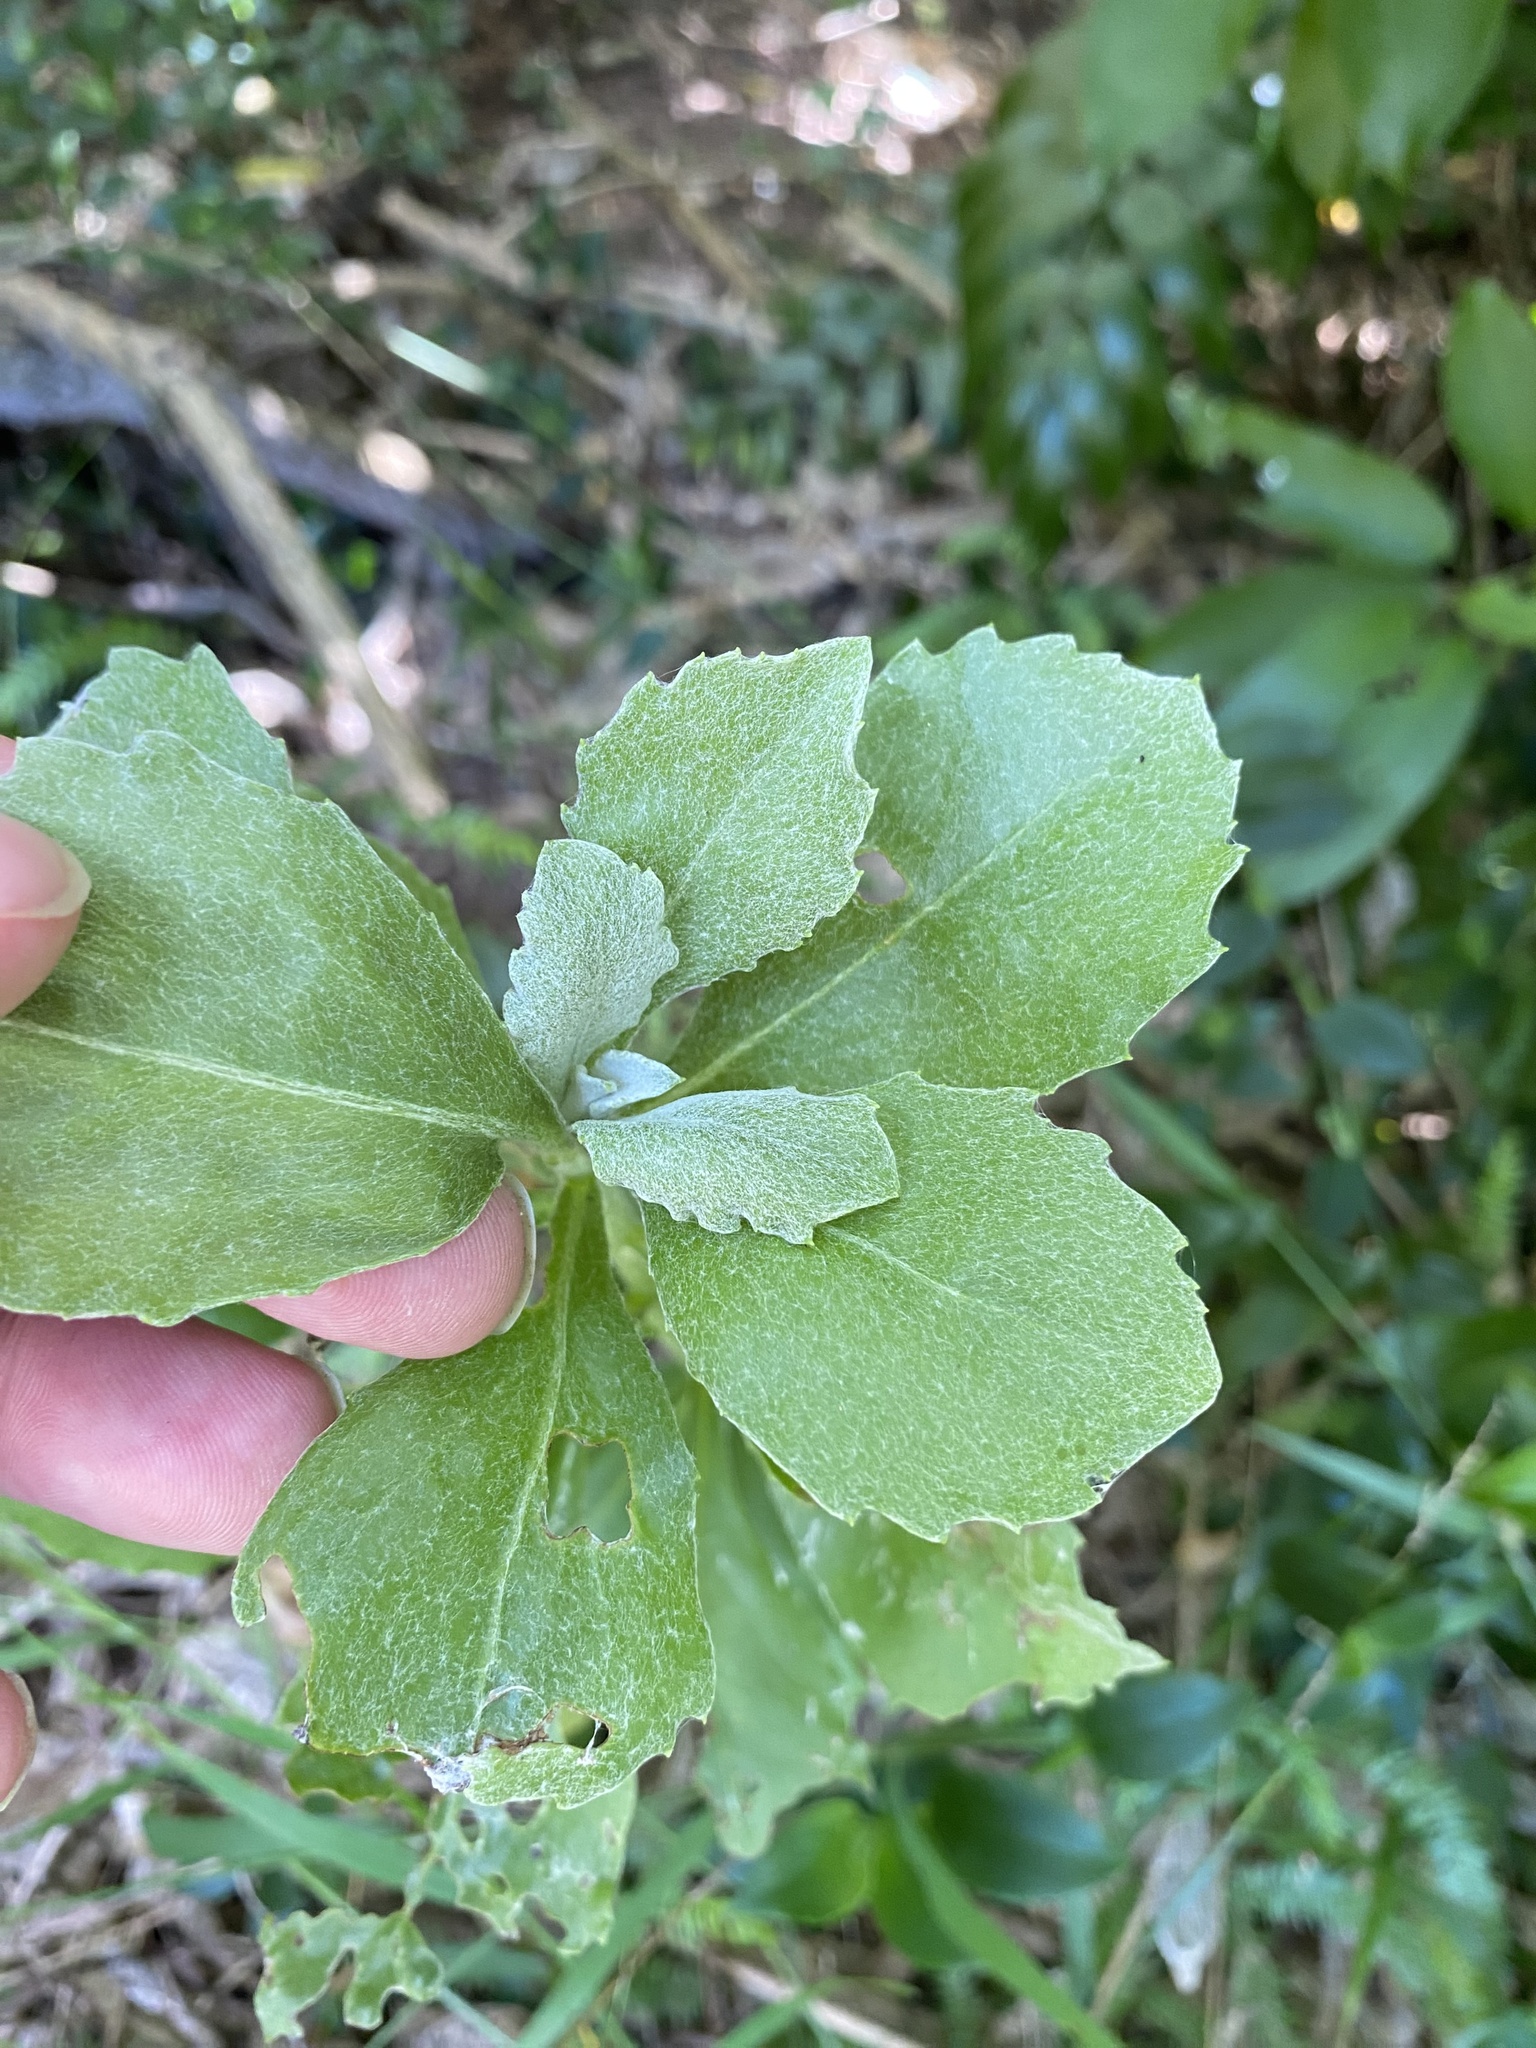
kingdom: Plantae
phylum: Tracheophyta
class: Magnoliopsida
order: Asterales
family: Asteraceae
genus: Osteospermum
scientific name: Osteospermum moniliferum
